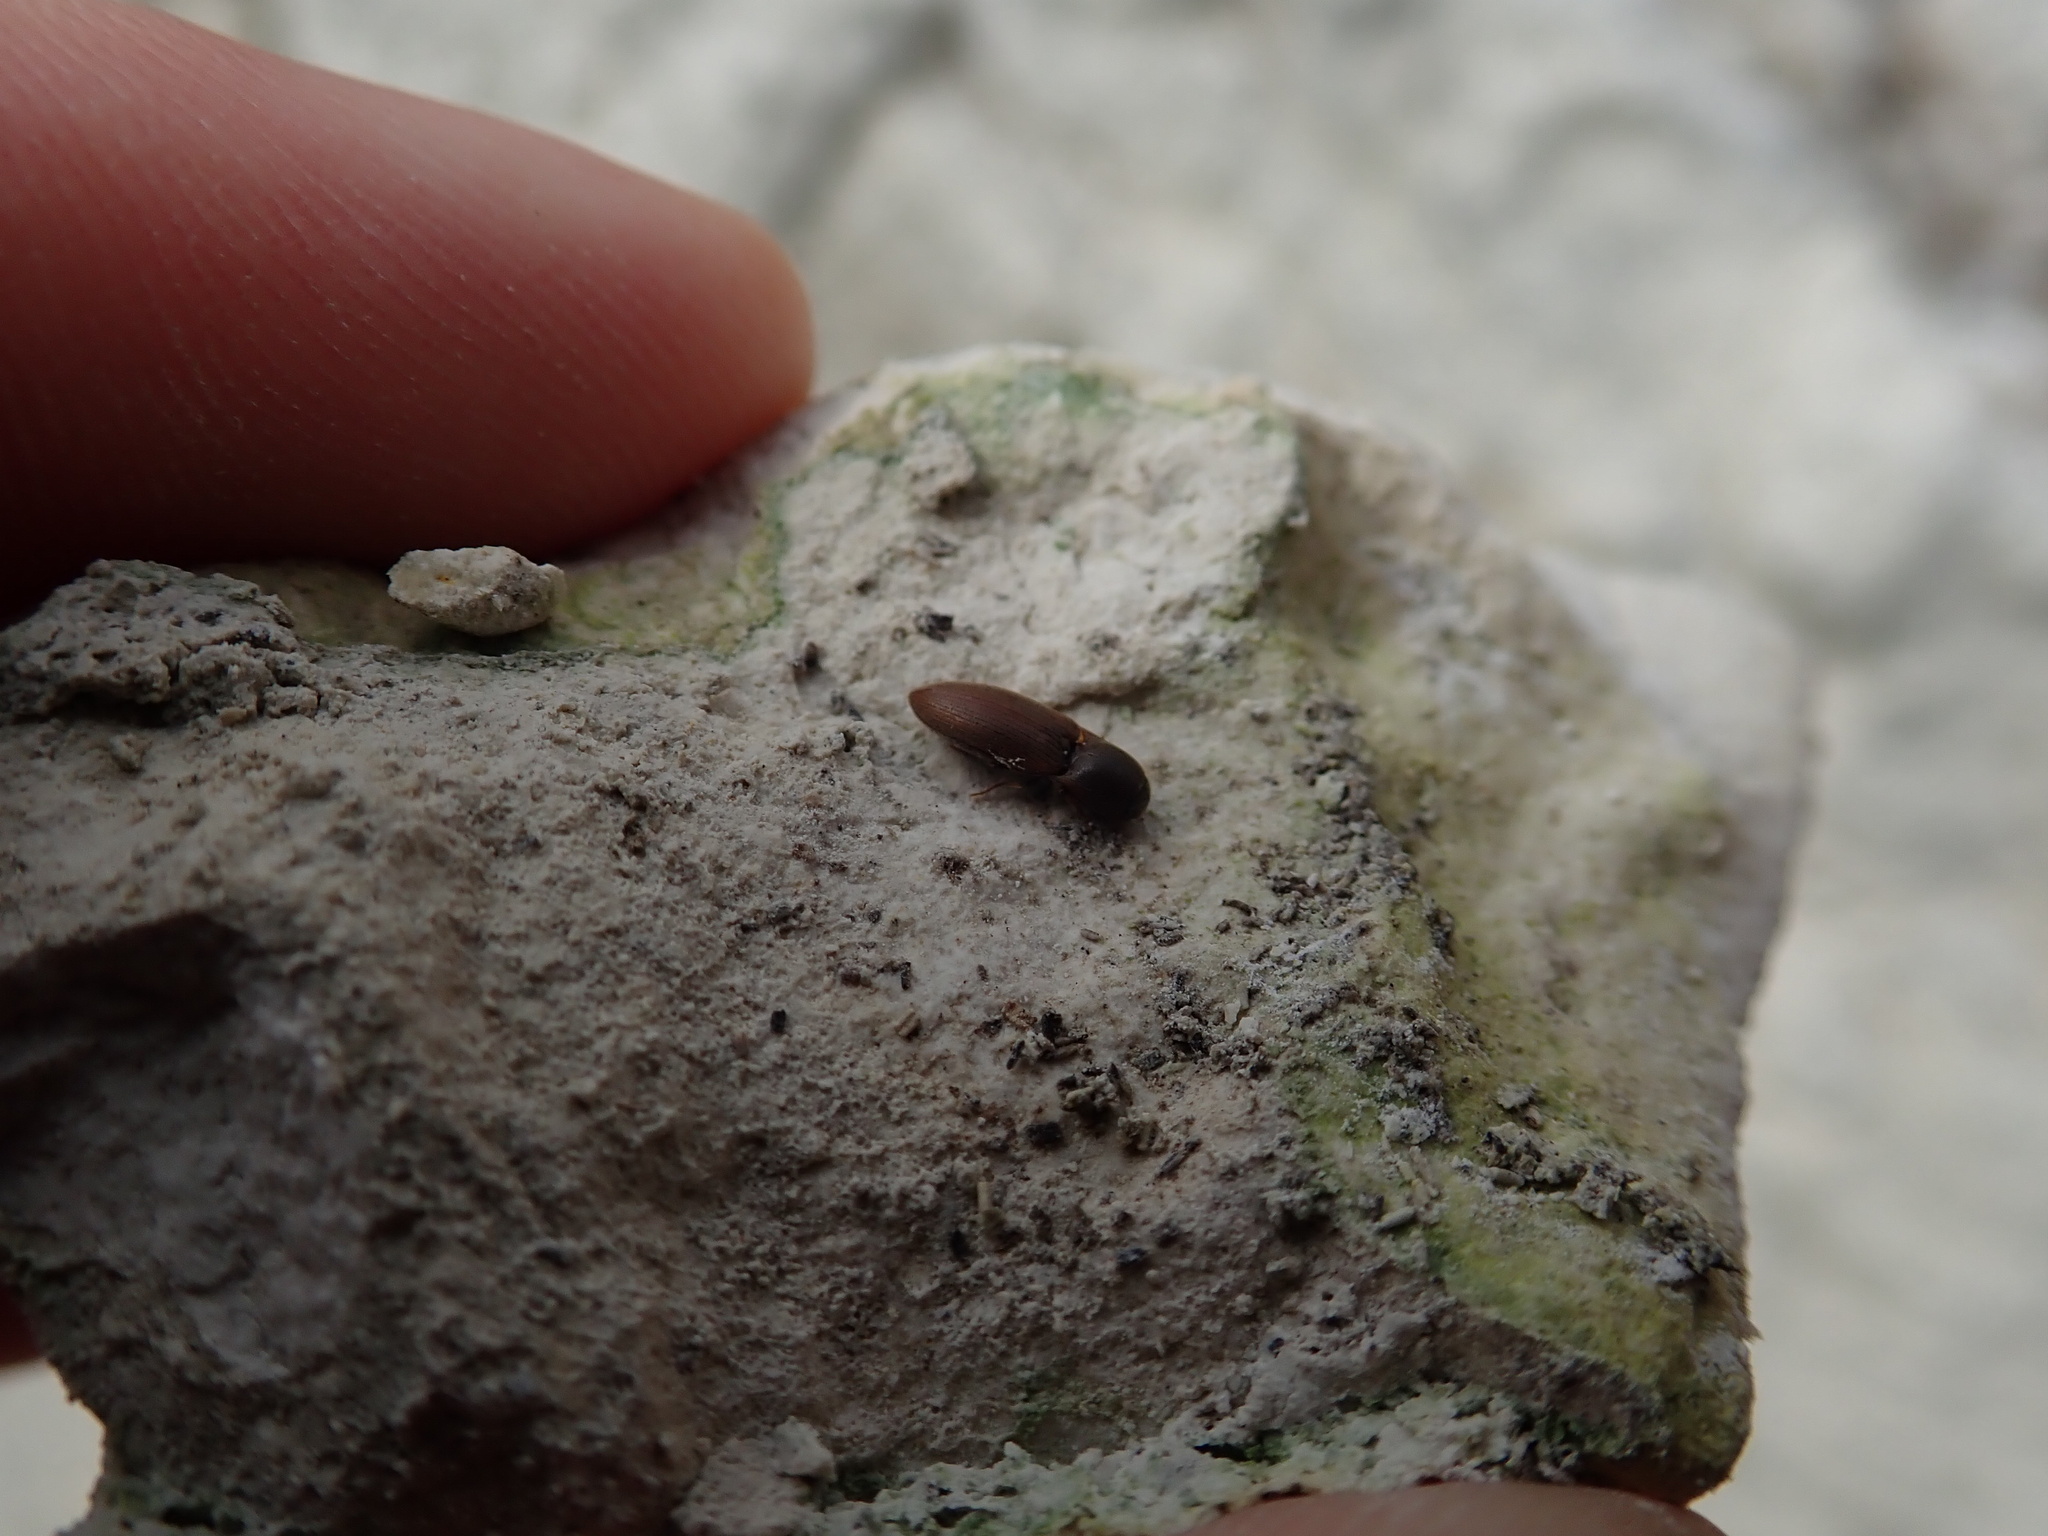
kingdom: Animalia
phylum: Arthropoda
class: Insecta
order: Coleoptera
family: Elateridae
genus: Agriotes
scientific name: Agriotes sputator
